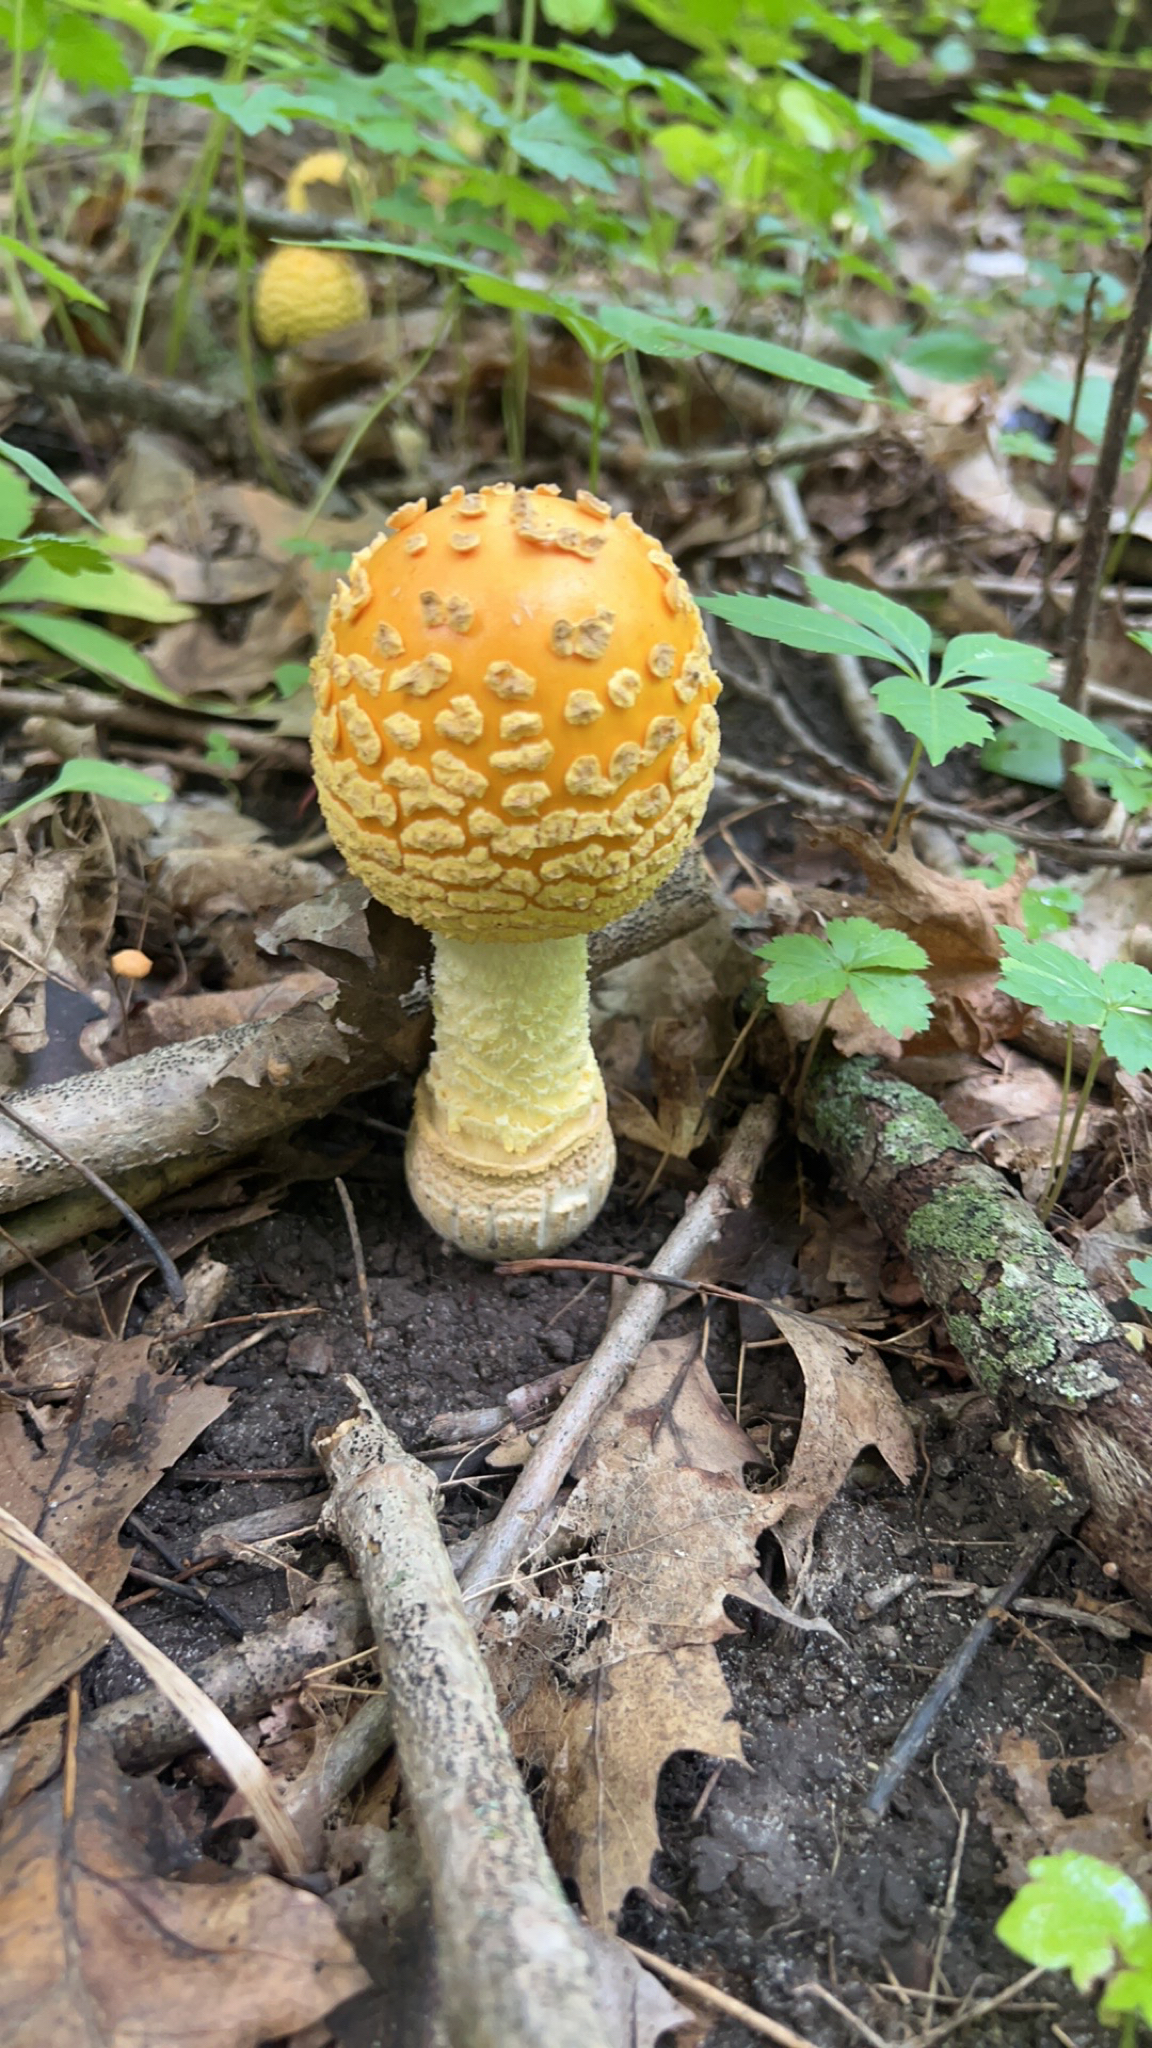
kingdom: Fungi
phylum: Basidiomycota
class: Agaricomycetes
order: Agaricales
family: Amanitaceae
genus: Amanita
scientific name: Amanita muscaria
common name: Fly agaric
